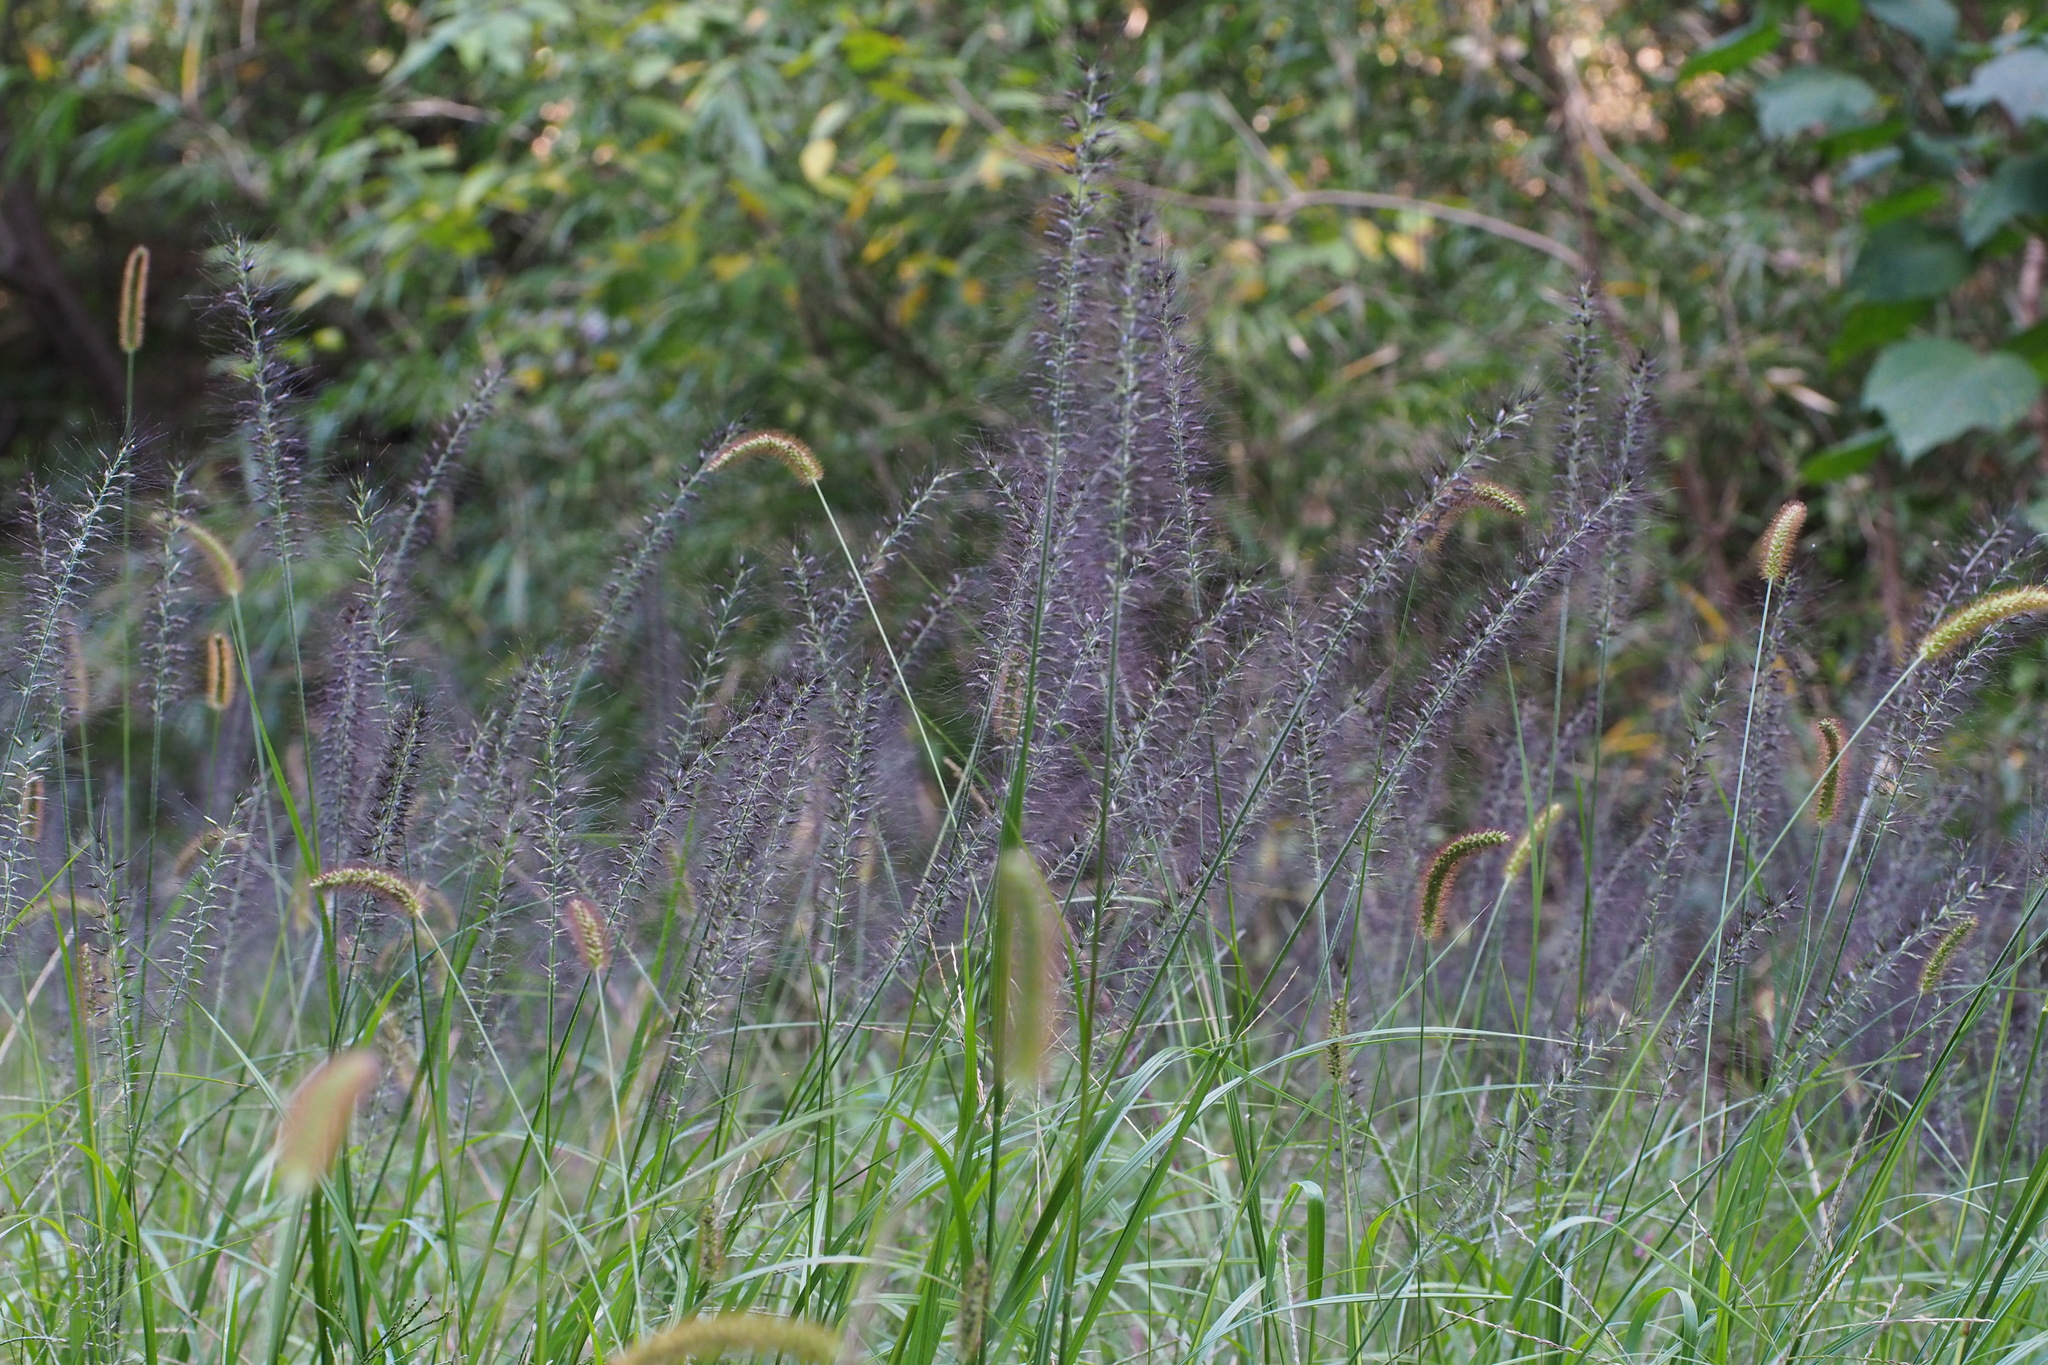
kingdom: Plantae
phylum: Tracheophyta
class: Liliopsida
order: Poales
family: Poaceae
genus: Cenchrus
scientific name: Cenchrus alopecuroides
